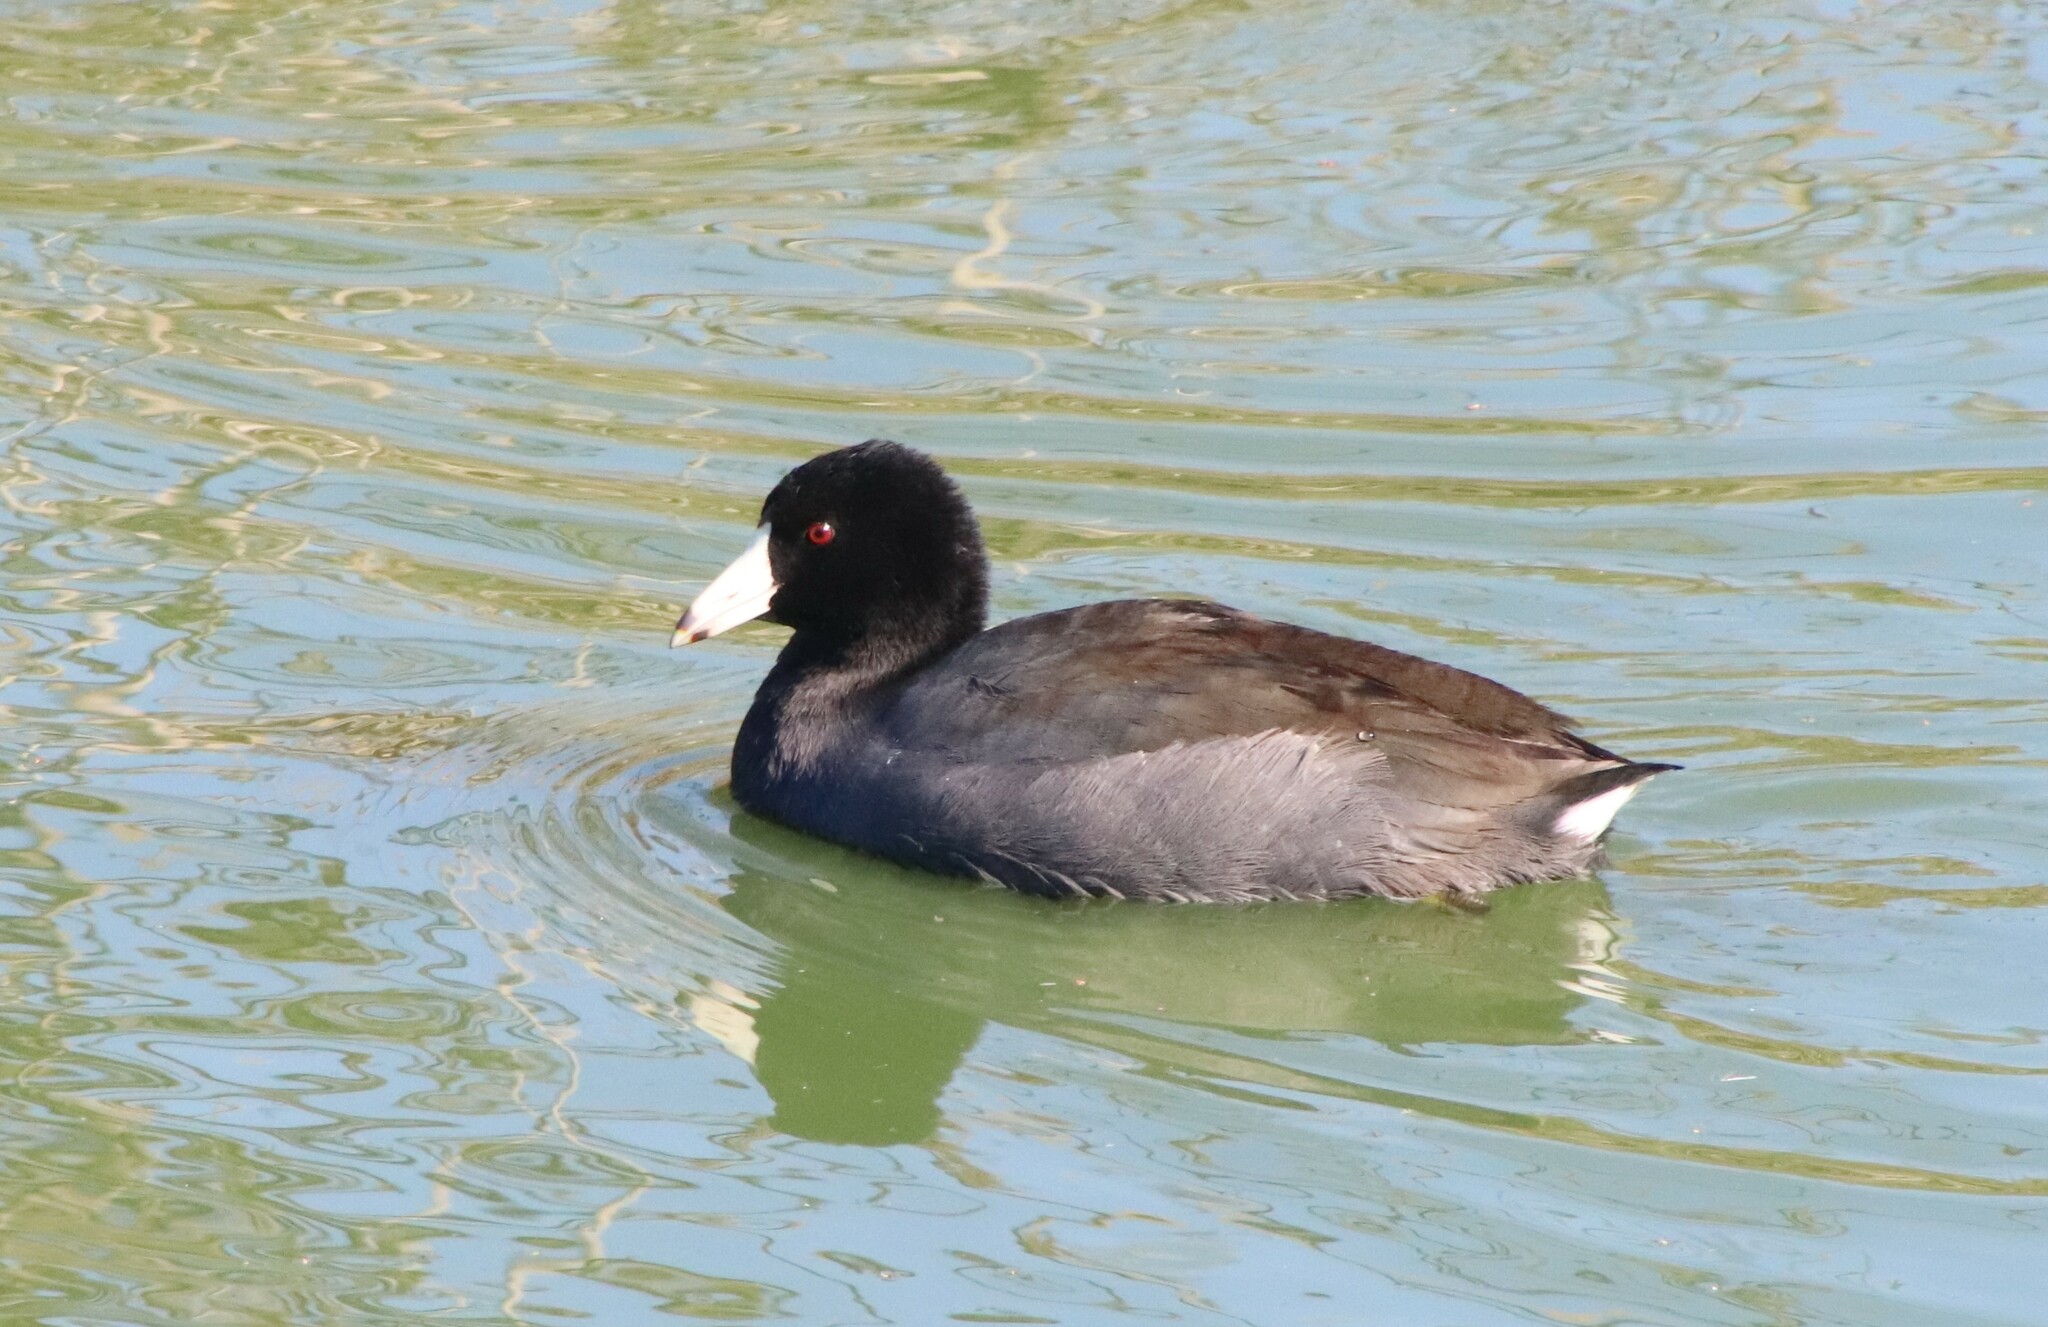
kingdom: Animalia
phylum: Chordata
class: Aves
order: Gruiformes
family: Rallidae
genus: Fulica
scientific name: Fulica americana
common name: American coot
